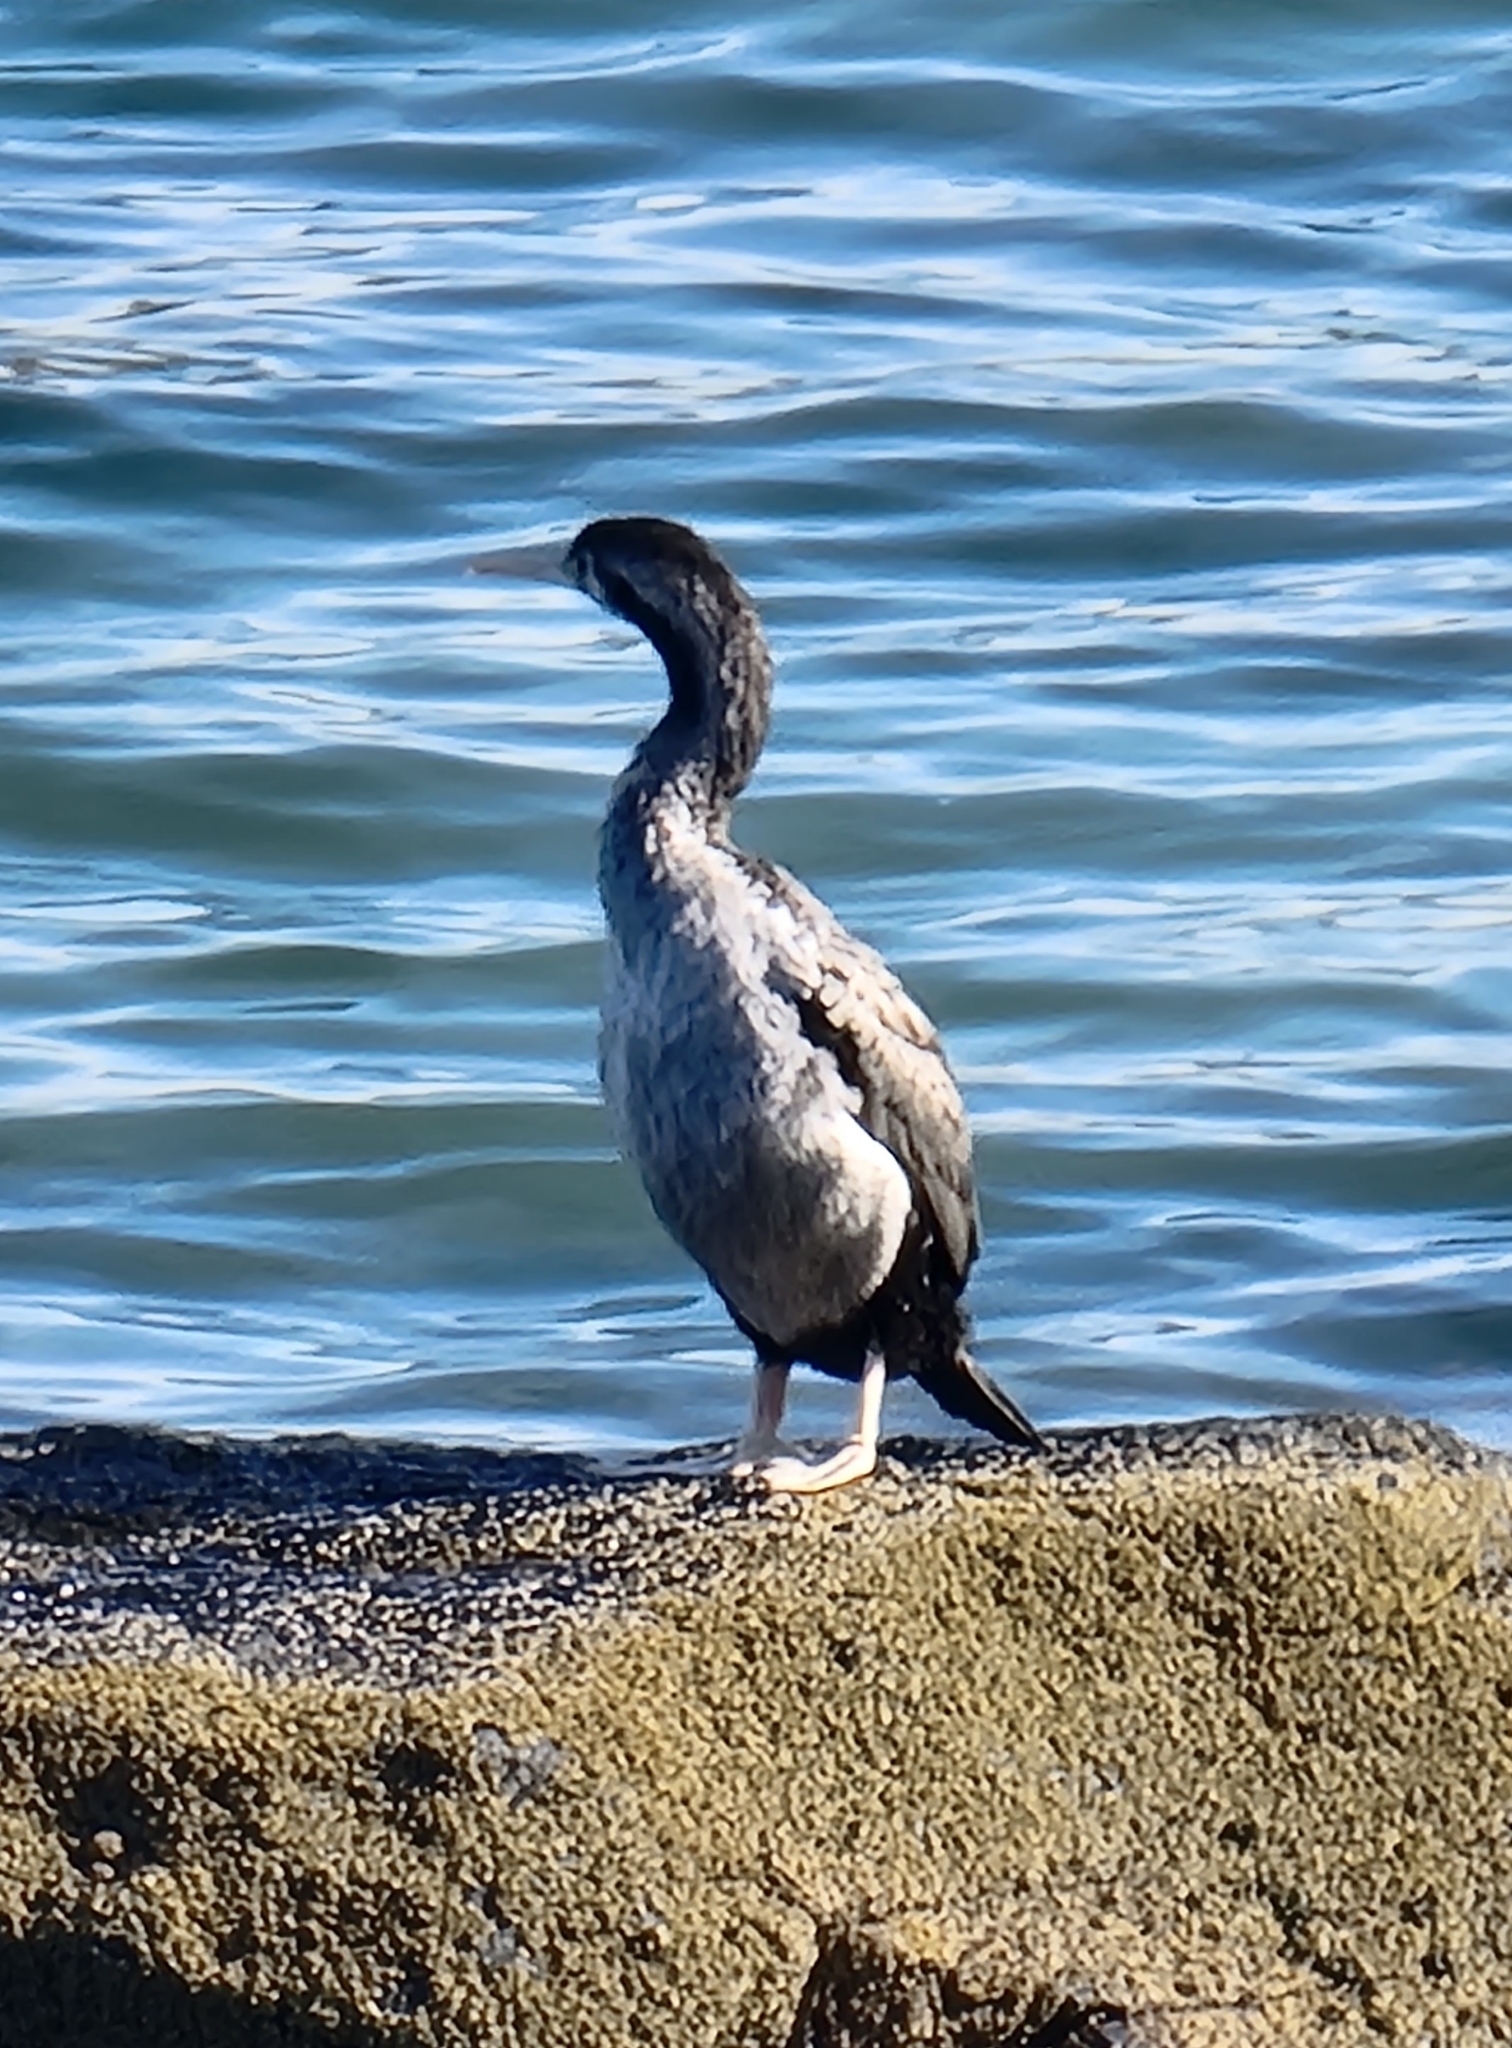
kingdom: Animalia
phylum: Chordata
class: Aves
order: Suliformes
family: Phalacrocoracidae
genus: Phalacrocorax
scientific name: Phalacrocorax punctatus
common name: Spotted shag
